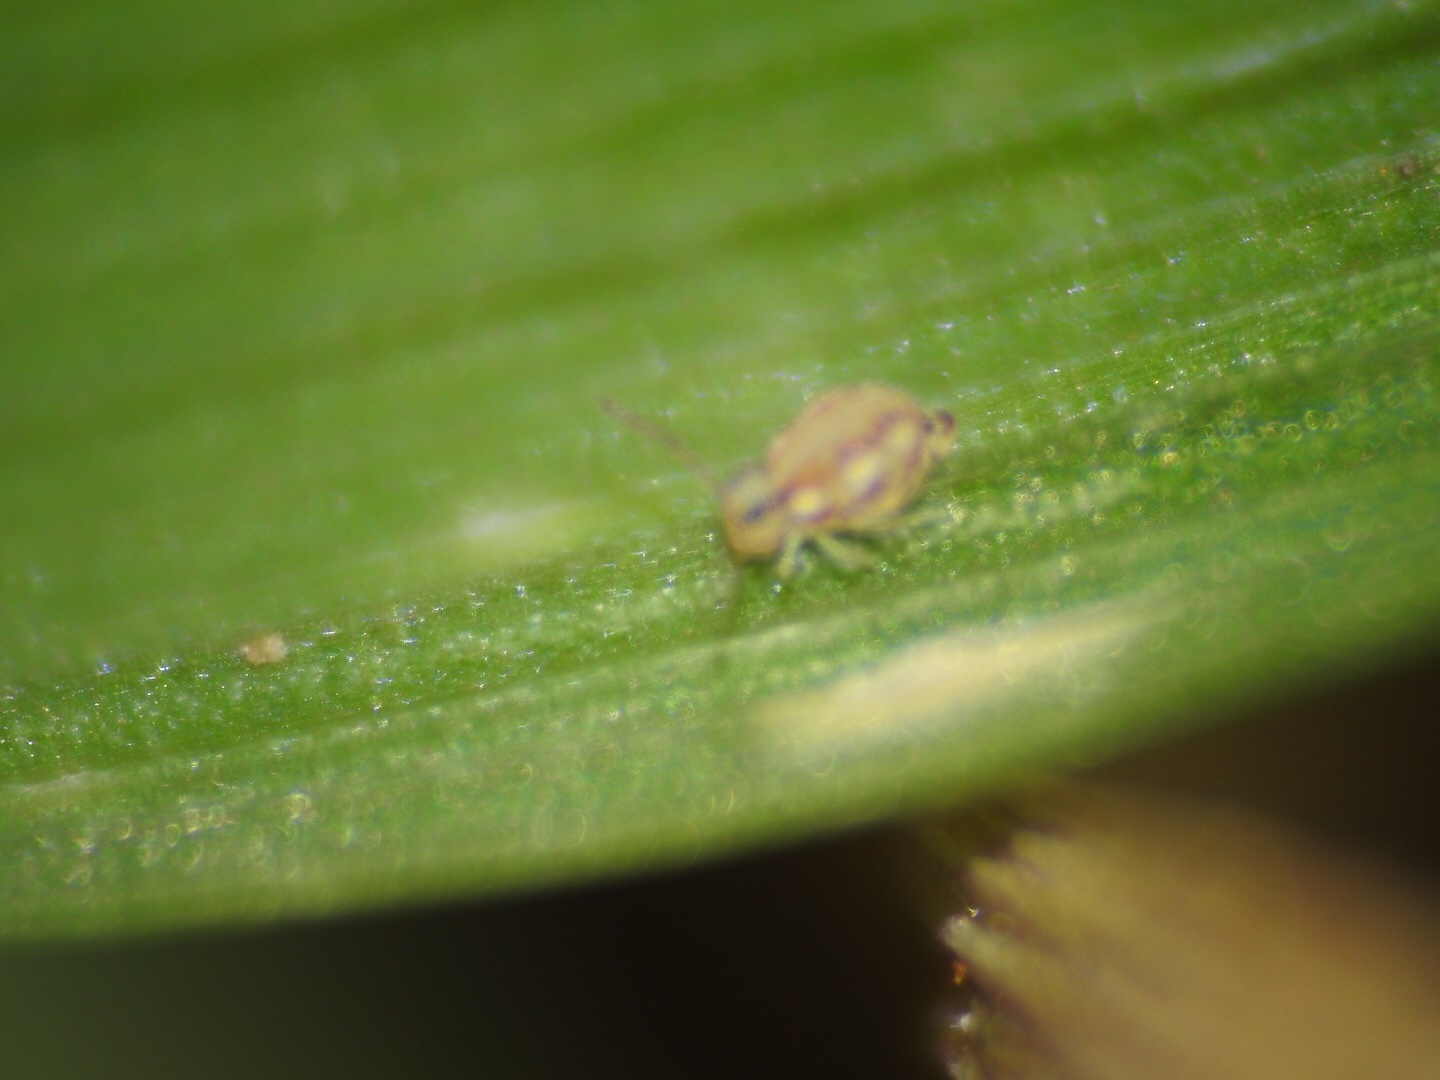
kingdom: Animalia
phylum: Arthropoda
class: Collembola
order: Symphypleona
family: Bourletiellidae
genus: Prorastriopes
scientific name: Prorastriopes coalingaensis
